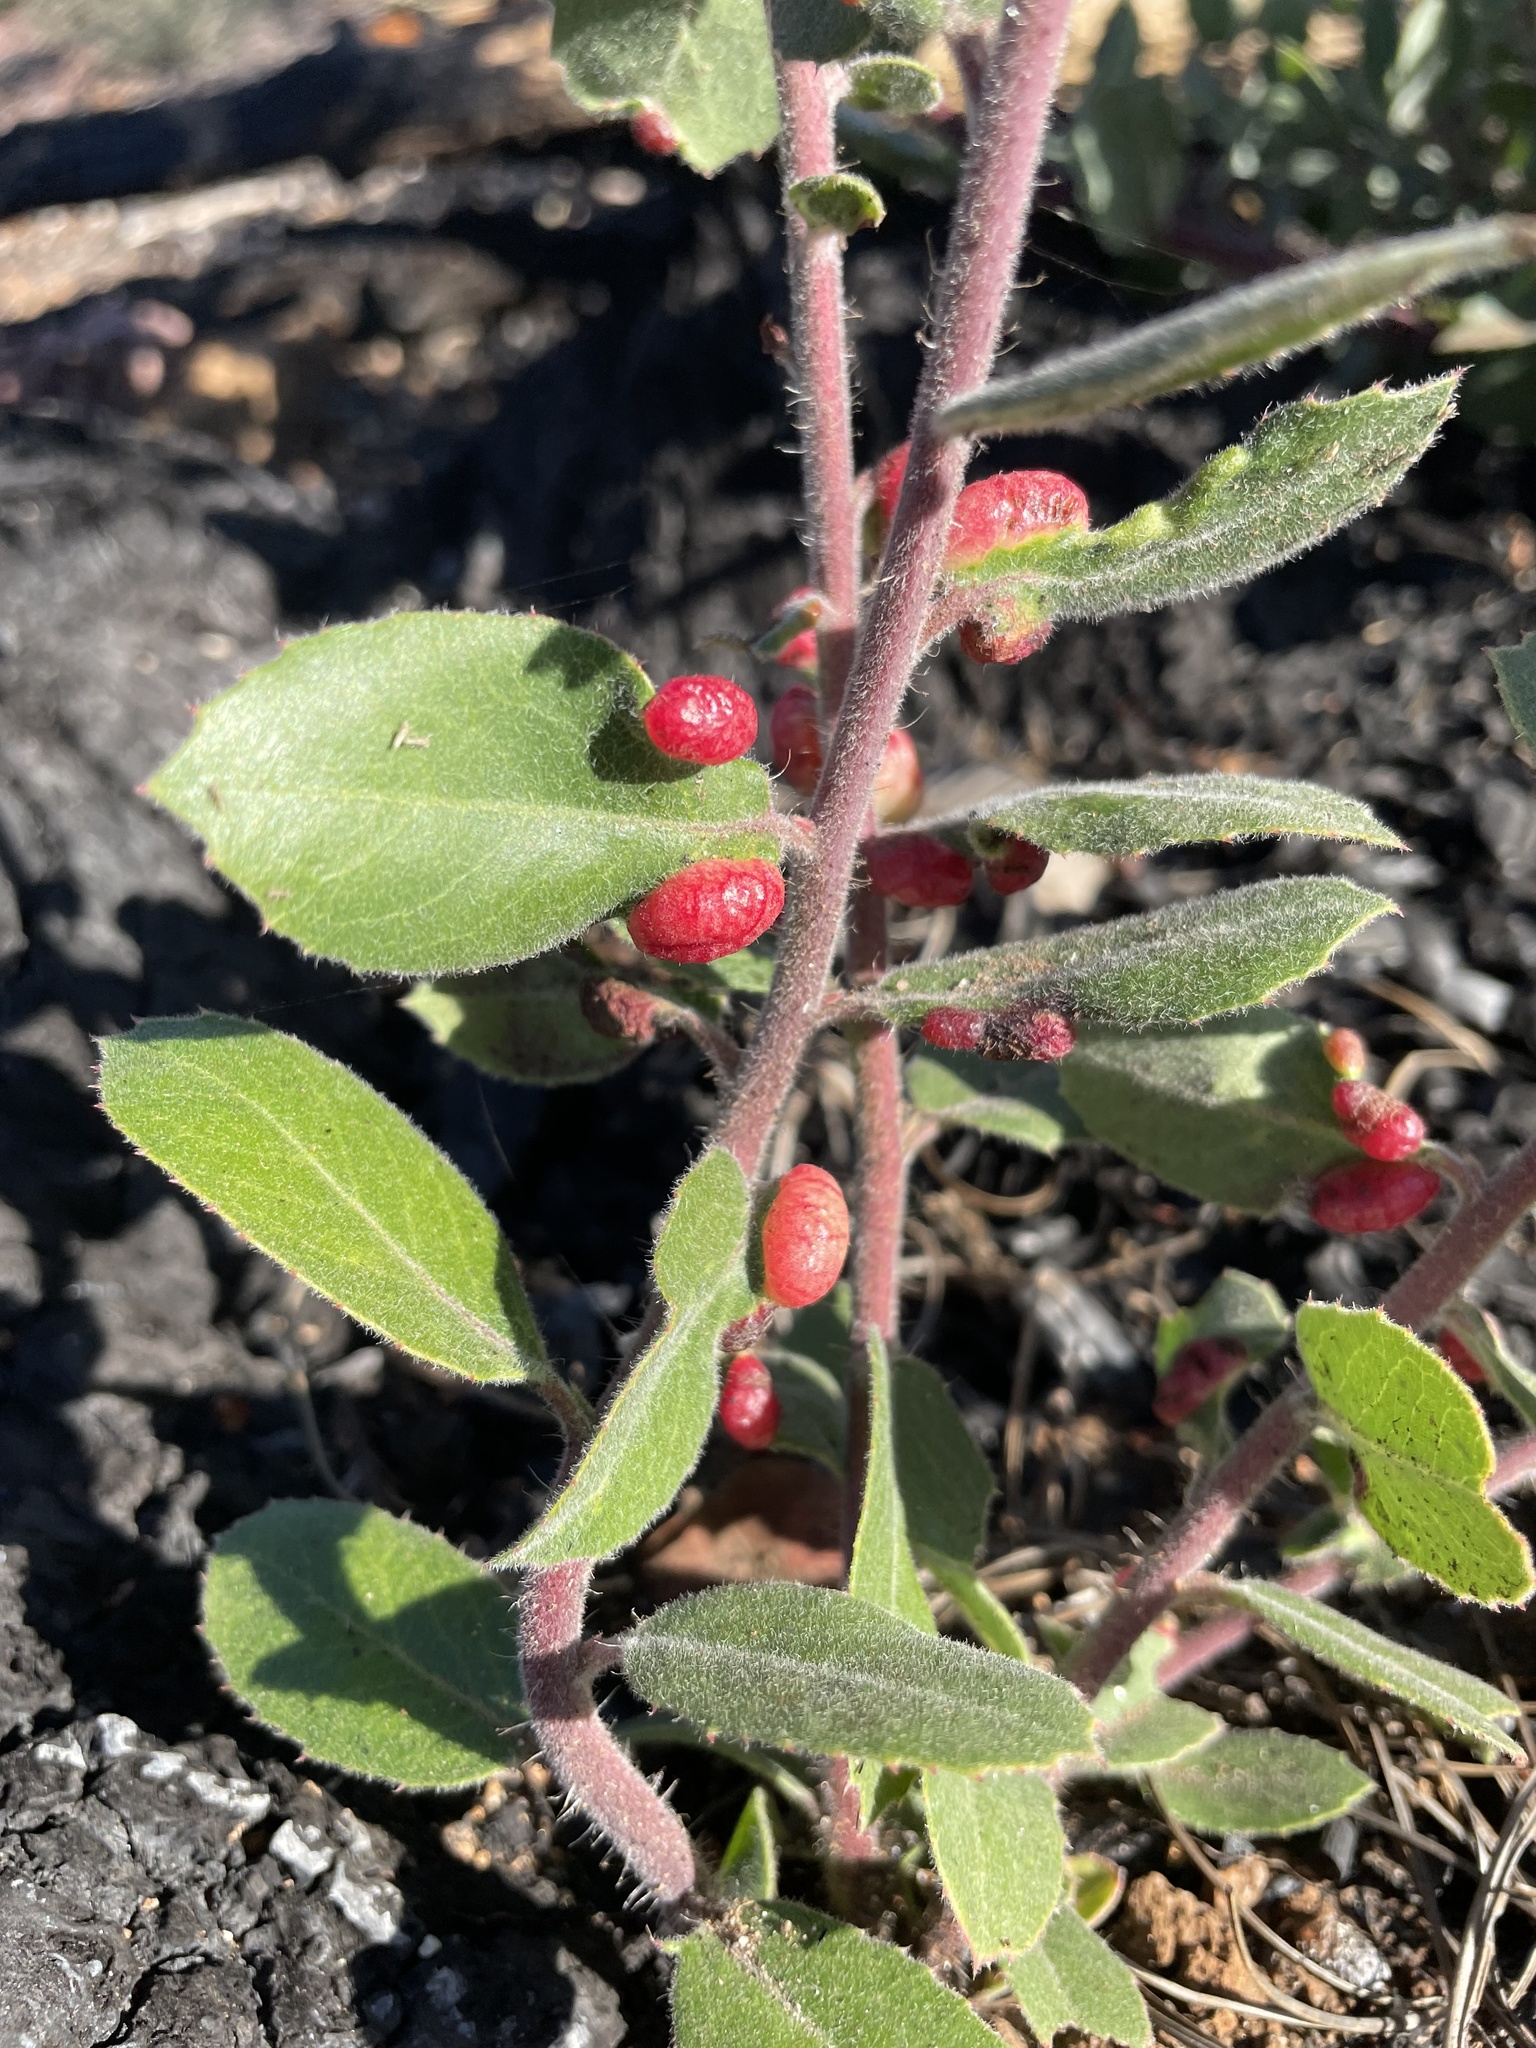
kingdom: Animalia
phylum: Arthropoda
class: Insecta
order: Hemiptera
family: Aphididae
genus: Tamalia
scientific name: Tamalia coweni
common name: Manzanita leafgall aphid
